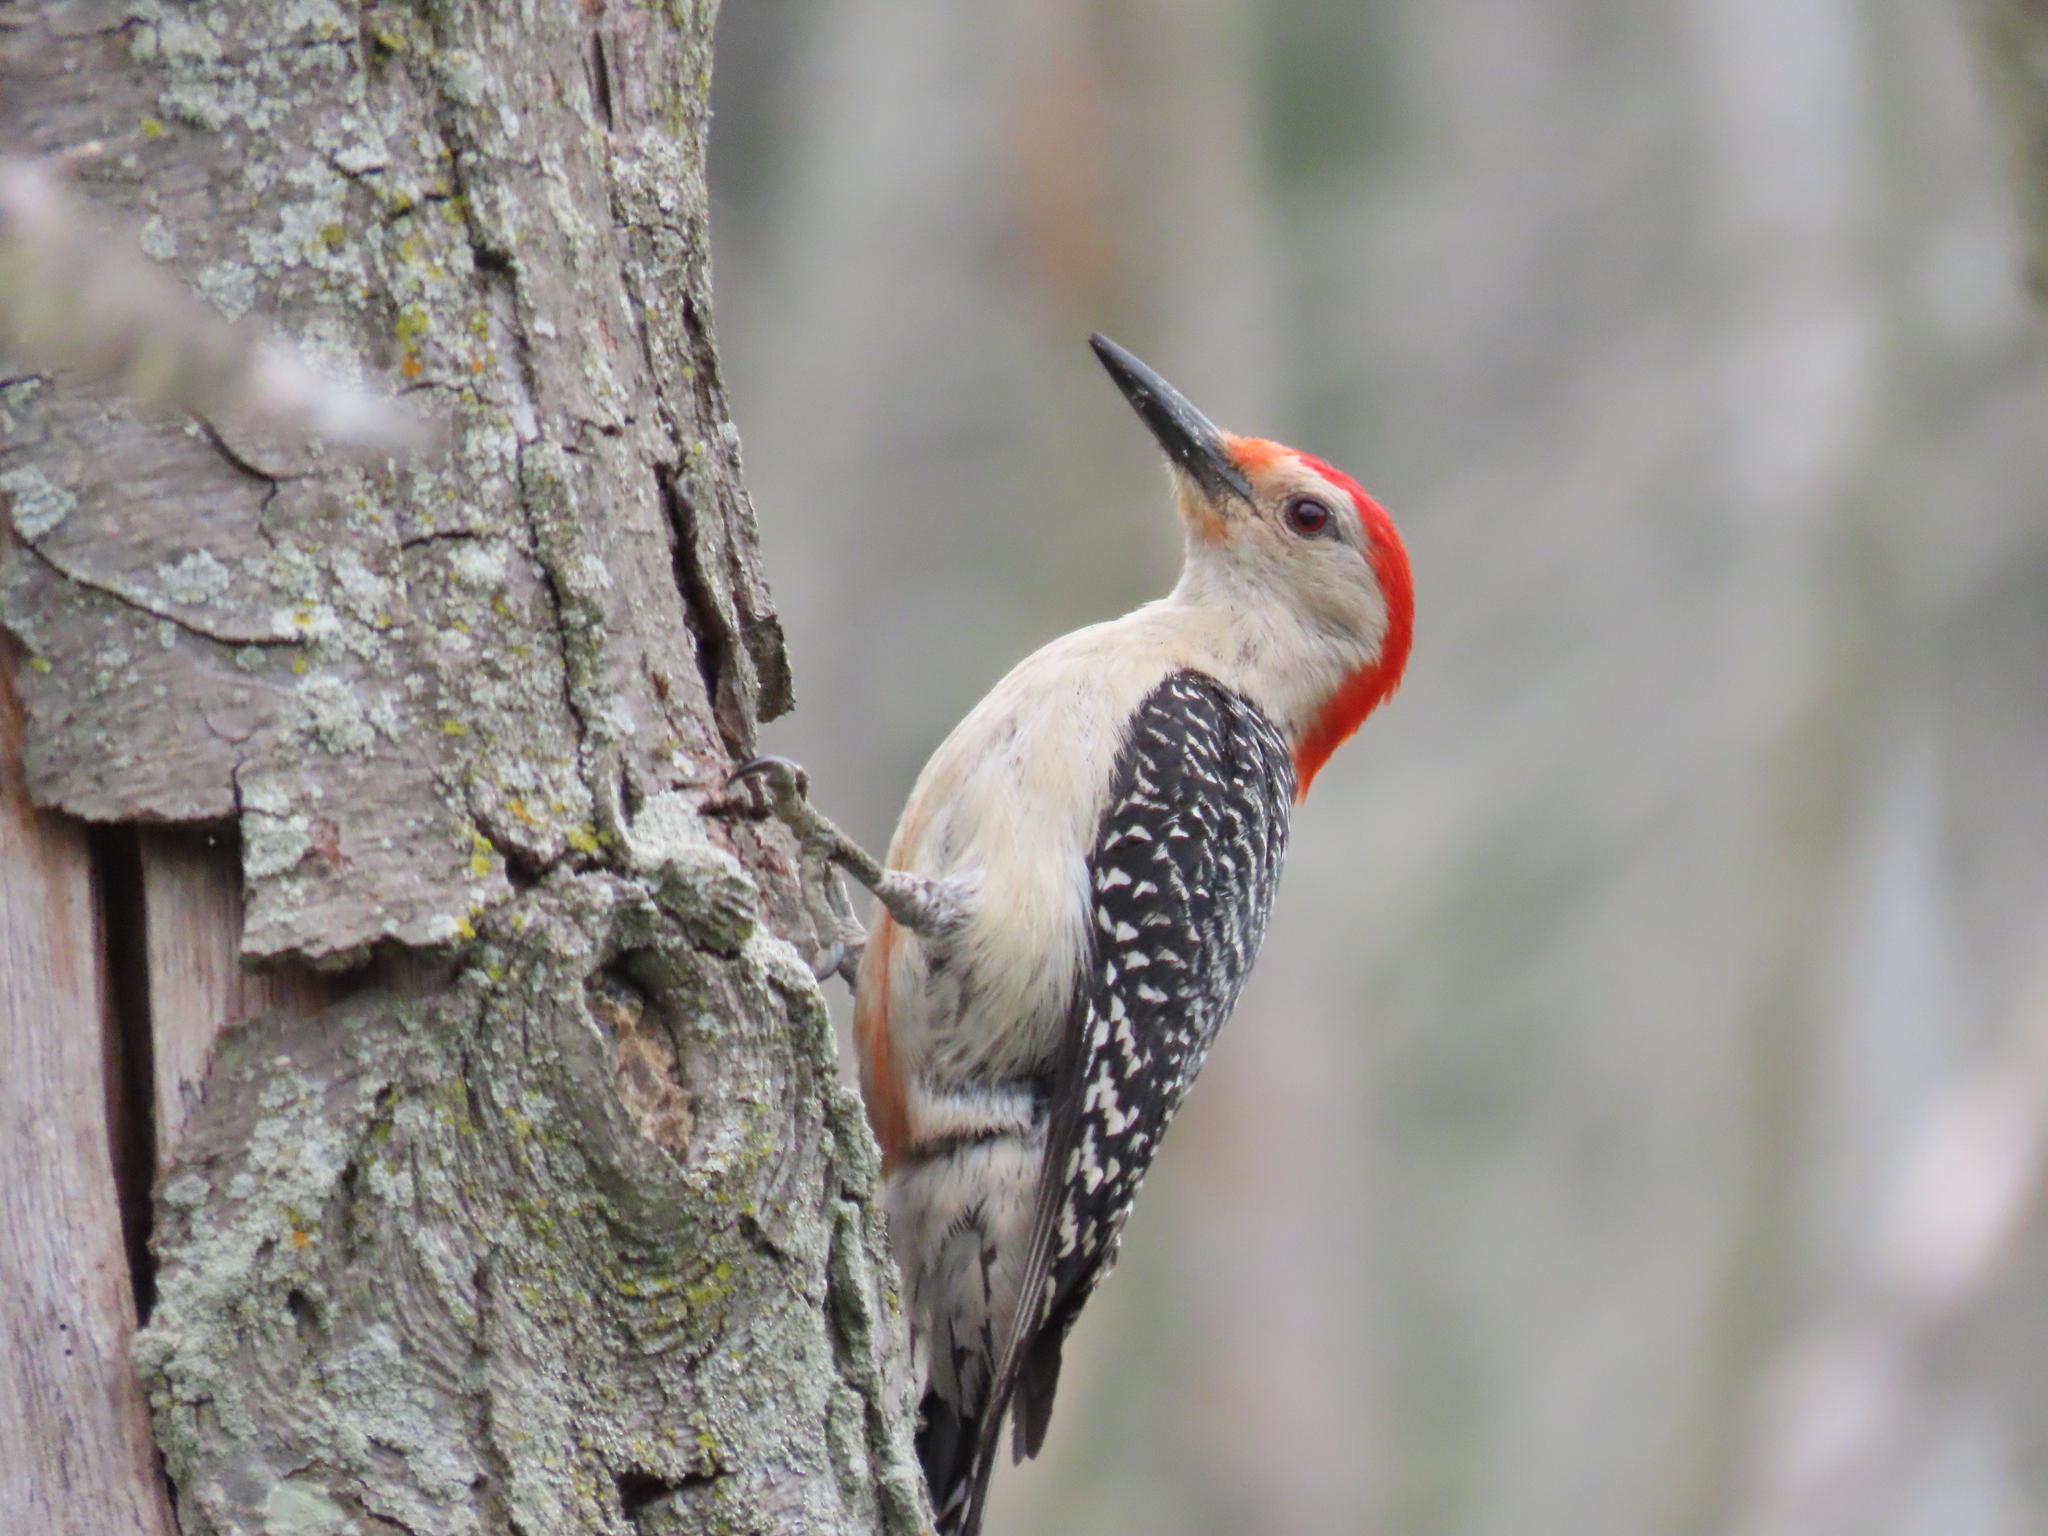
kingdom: Animalia
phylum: Chordata
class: Aves
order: Piciformes
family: Picidae
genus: Melanerpes
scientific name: Melanerpes carolinus
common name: Red-bellied woodpecker
